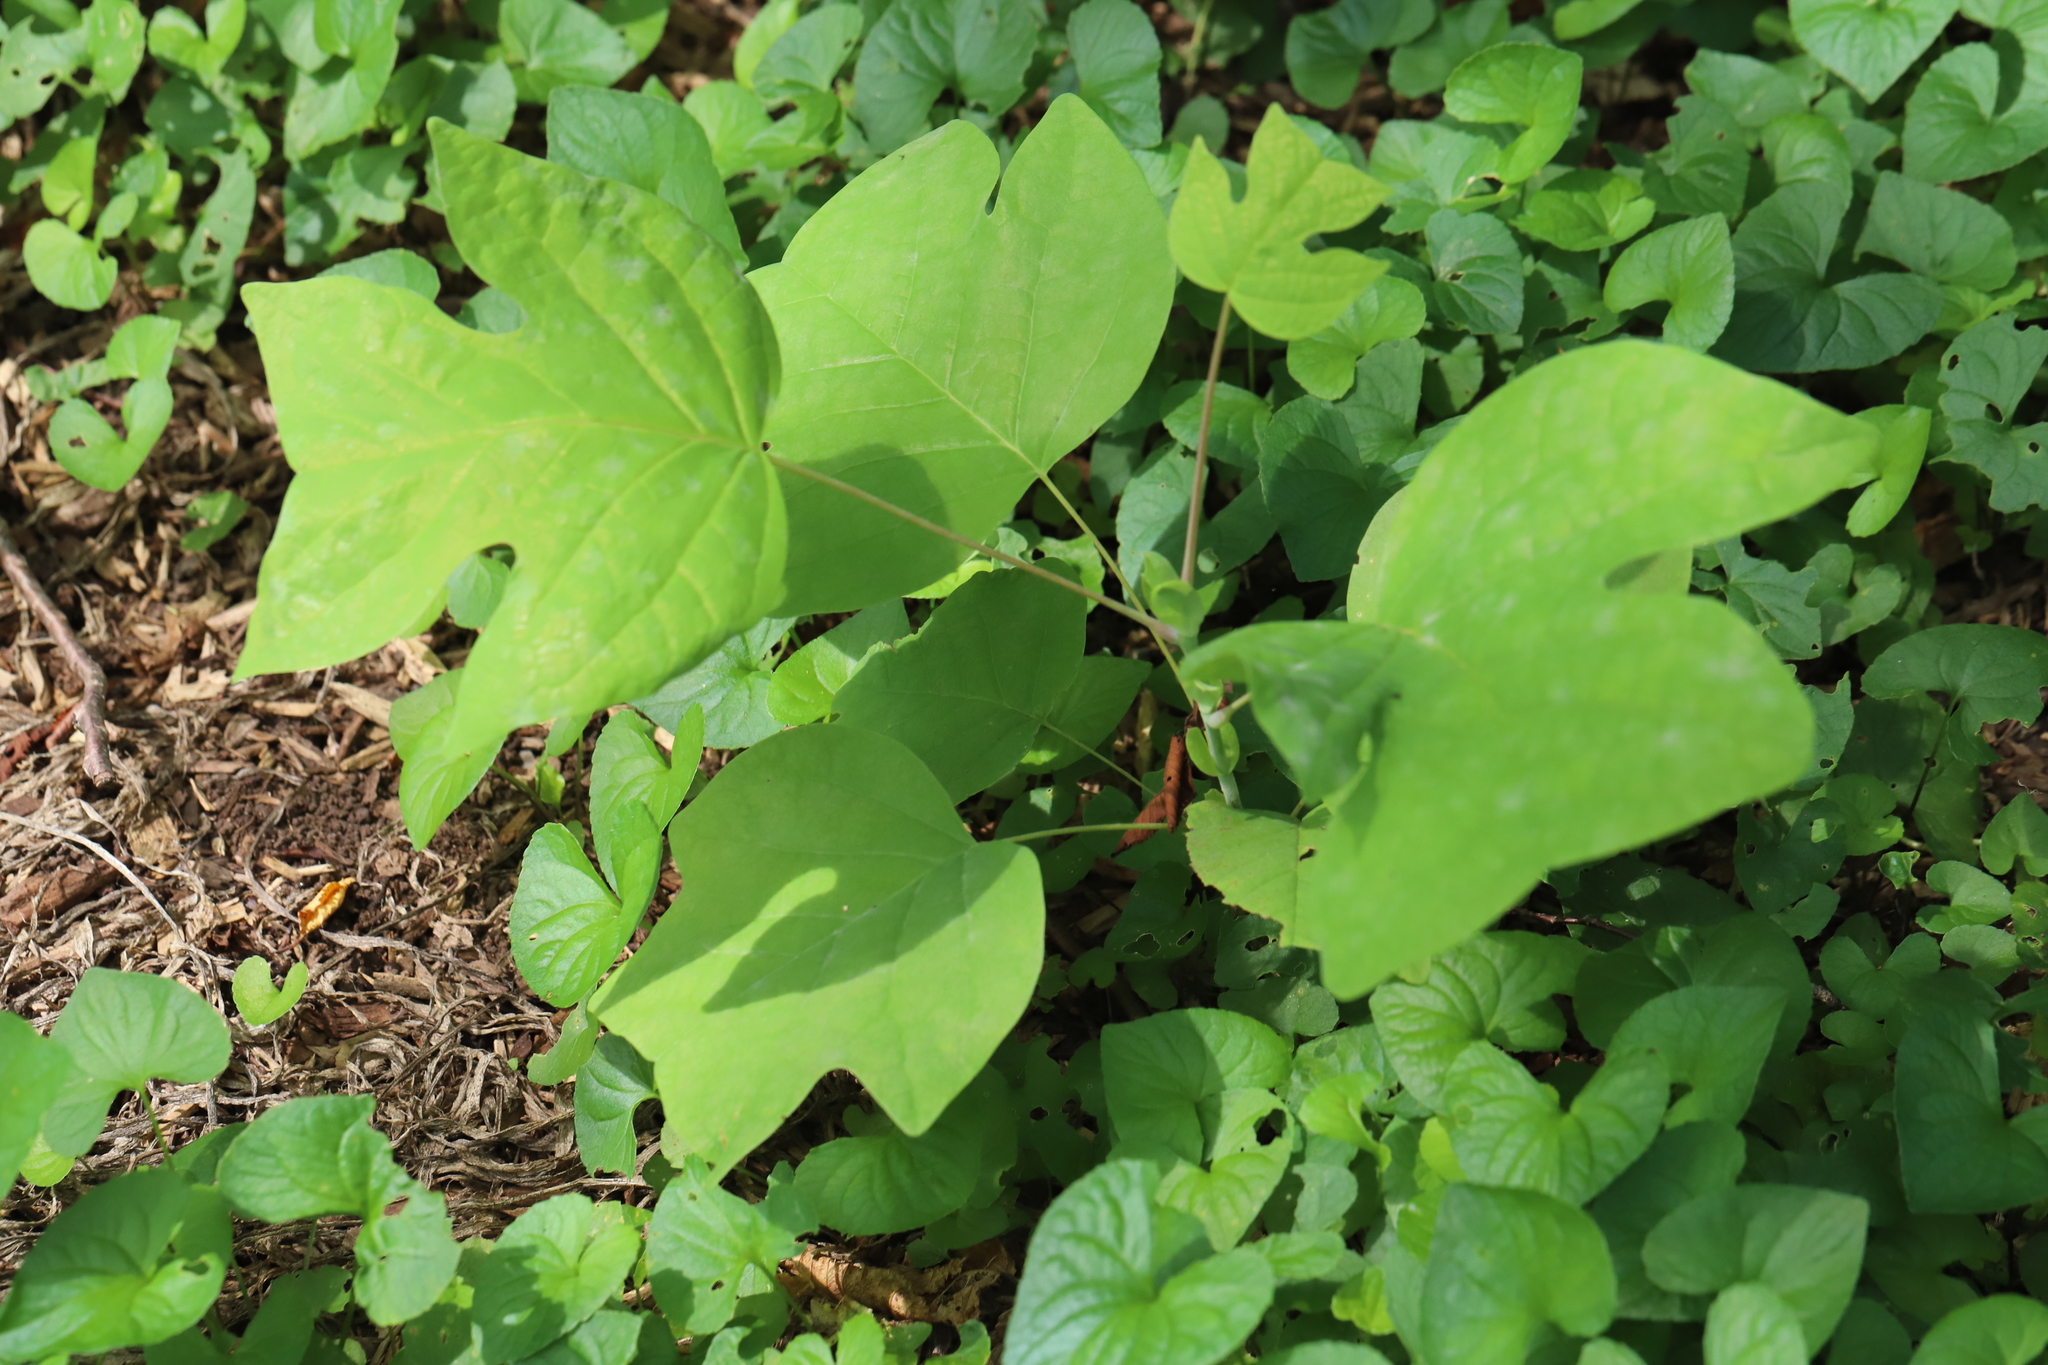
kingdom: Fungi
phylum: Ascomycota
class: Leotiomycetes
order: Helotiales
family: Erysiphaceae
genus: Erysiphe
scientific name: Erysiphe liriodendri
